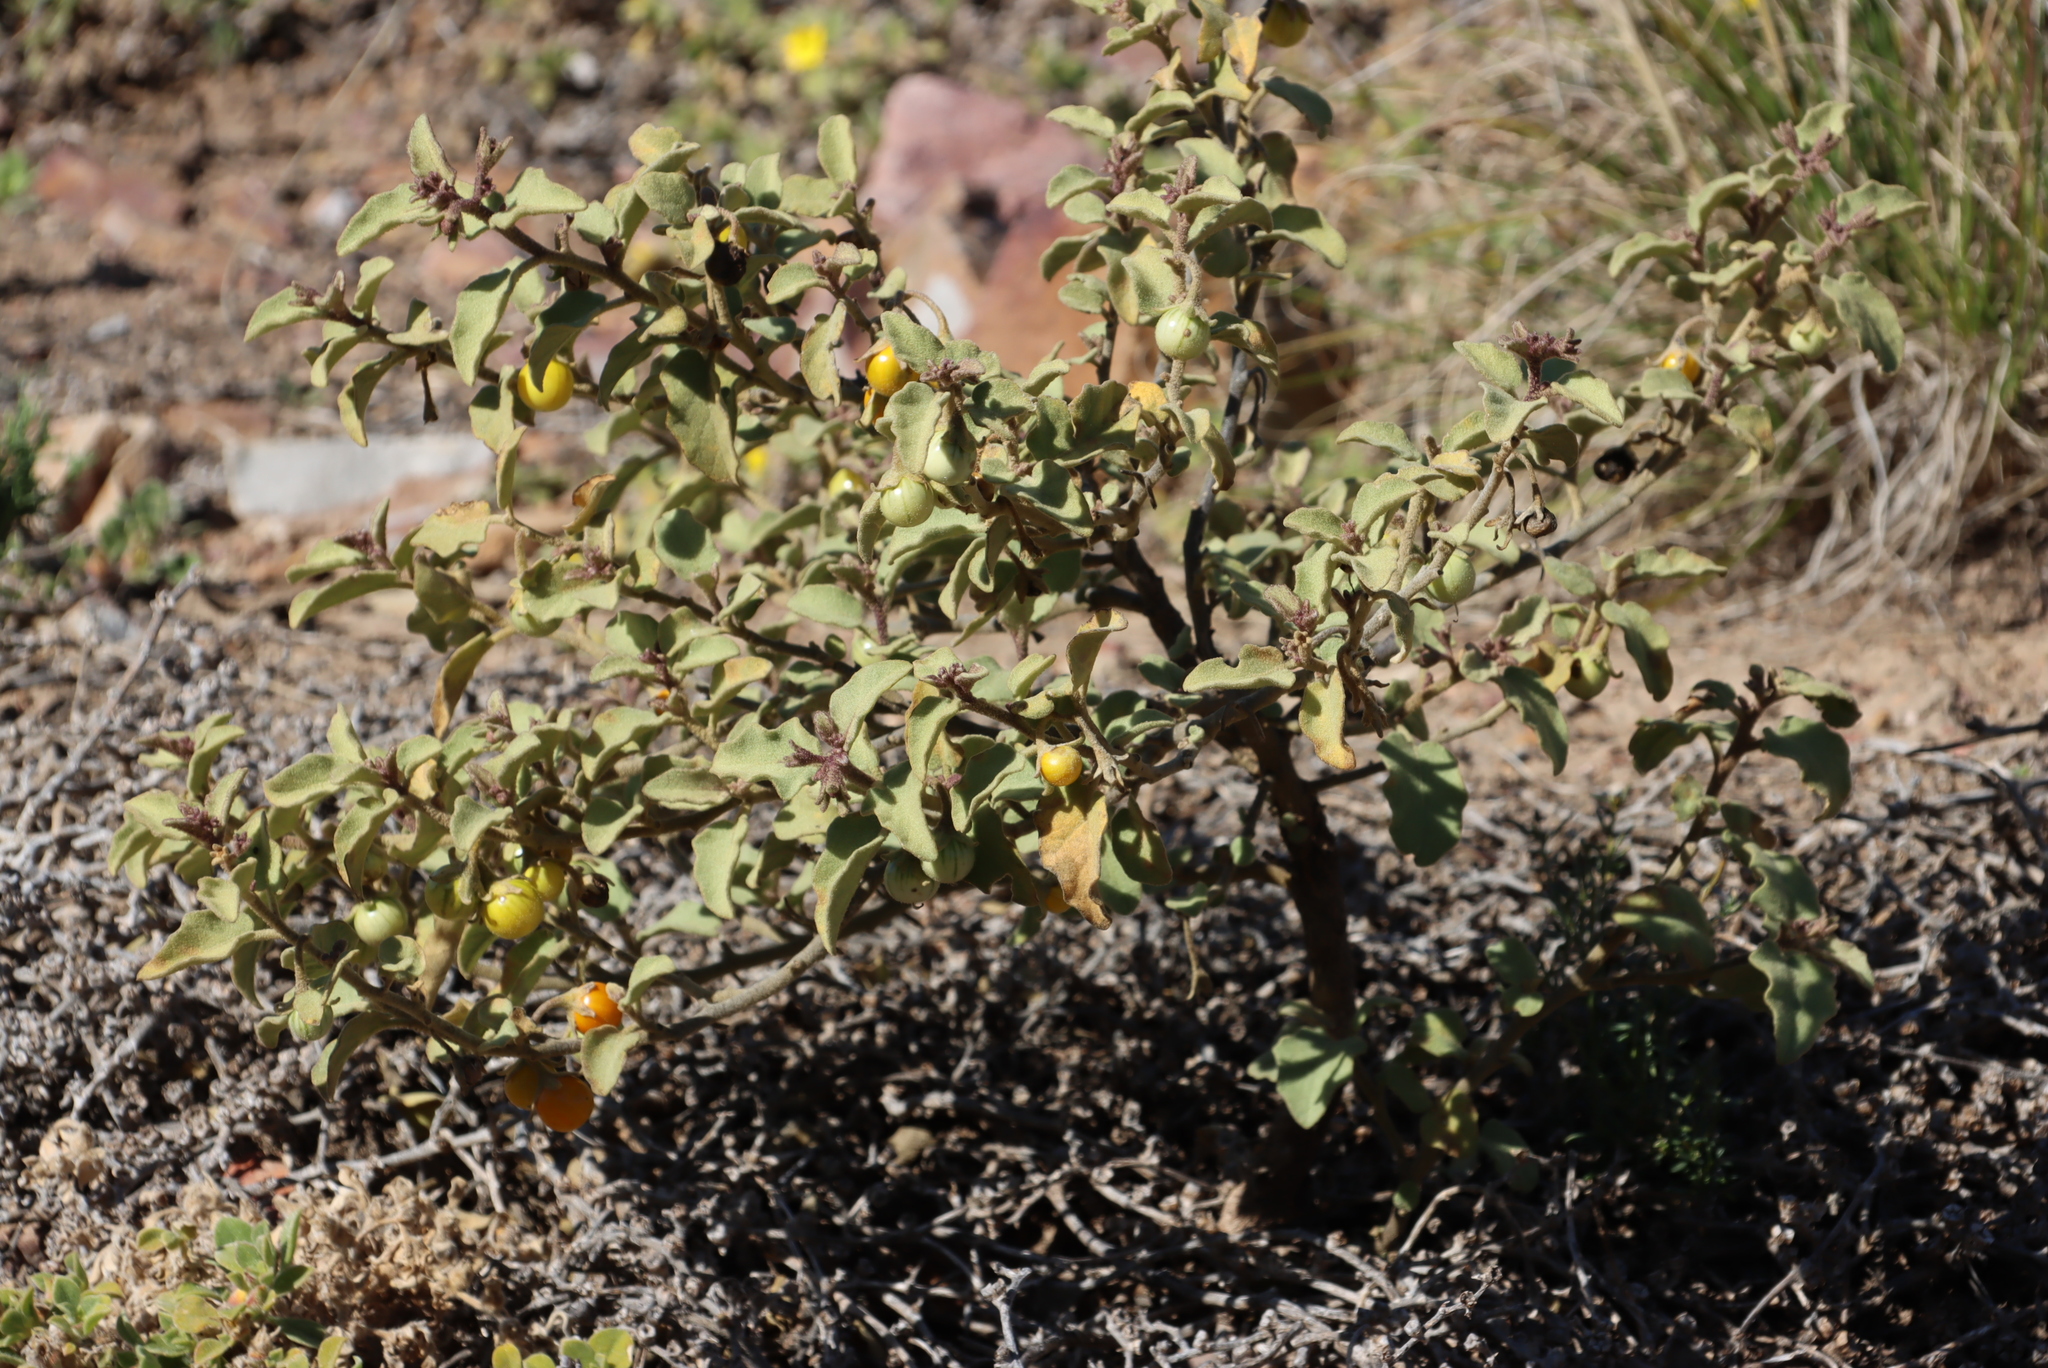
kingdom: Plantae
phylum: Tracheophyta
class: Magnoliopsida
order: Solanales
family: Solanaceae
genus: Solanum
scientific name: Solanum tomentosum
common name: Wild aubergine
